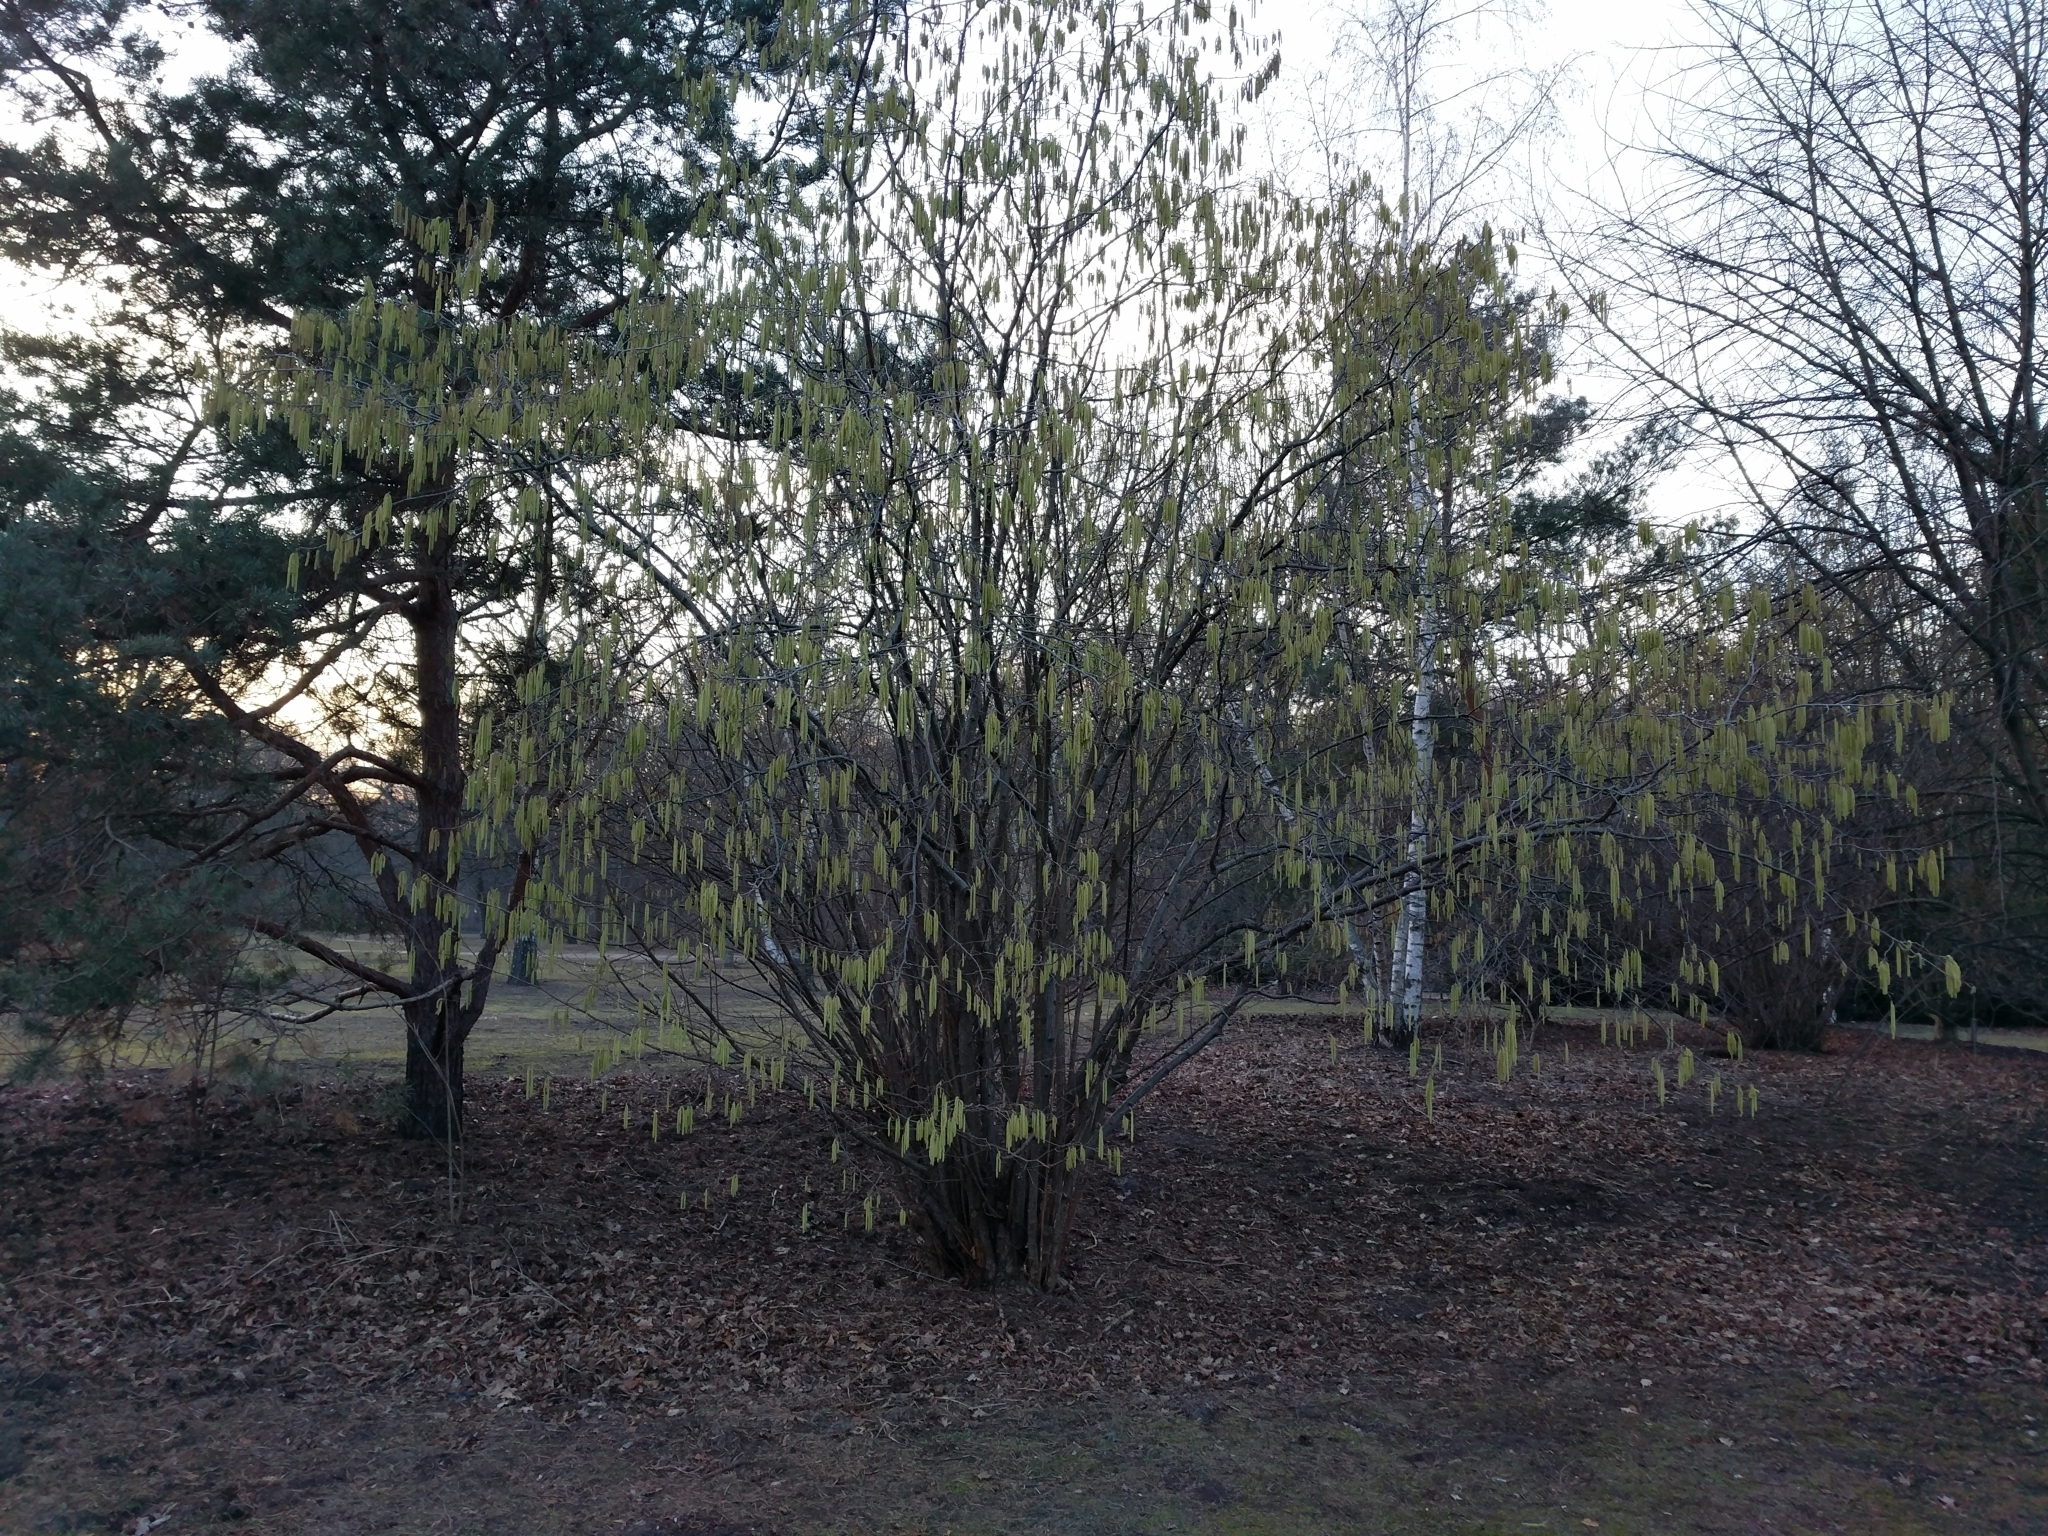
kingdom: Plantae
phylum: Tracheophyta
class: Magnoliopsida
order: Fagales
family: Betulaceae
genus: Corylus
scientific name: Corylus avellana
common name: European hazel
